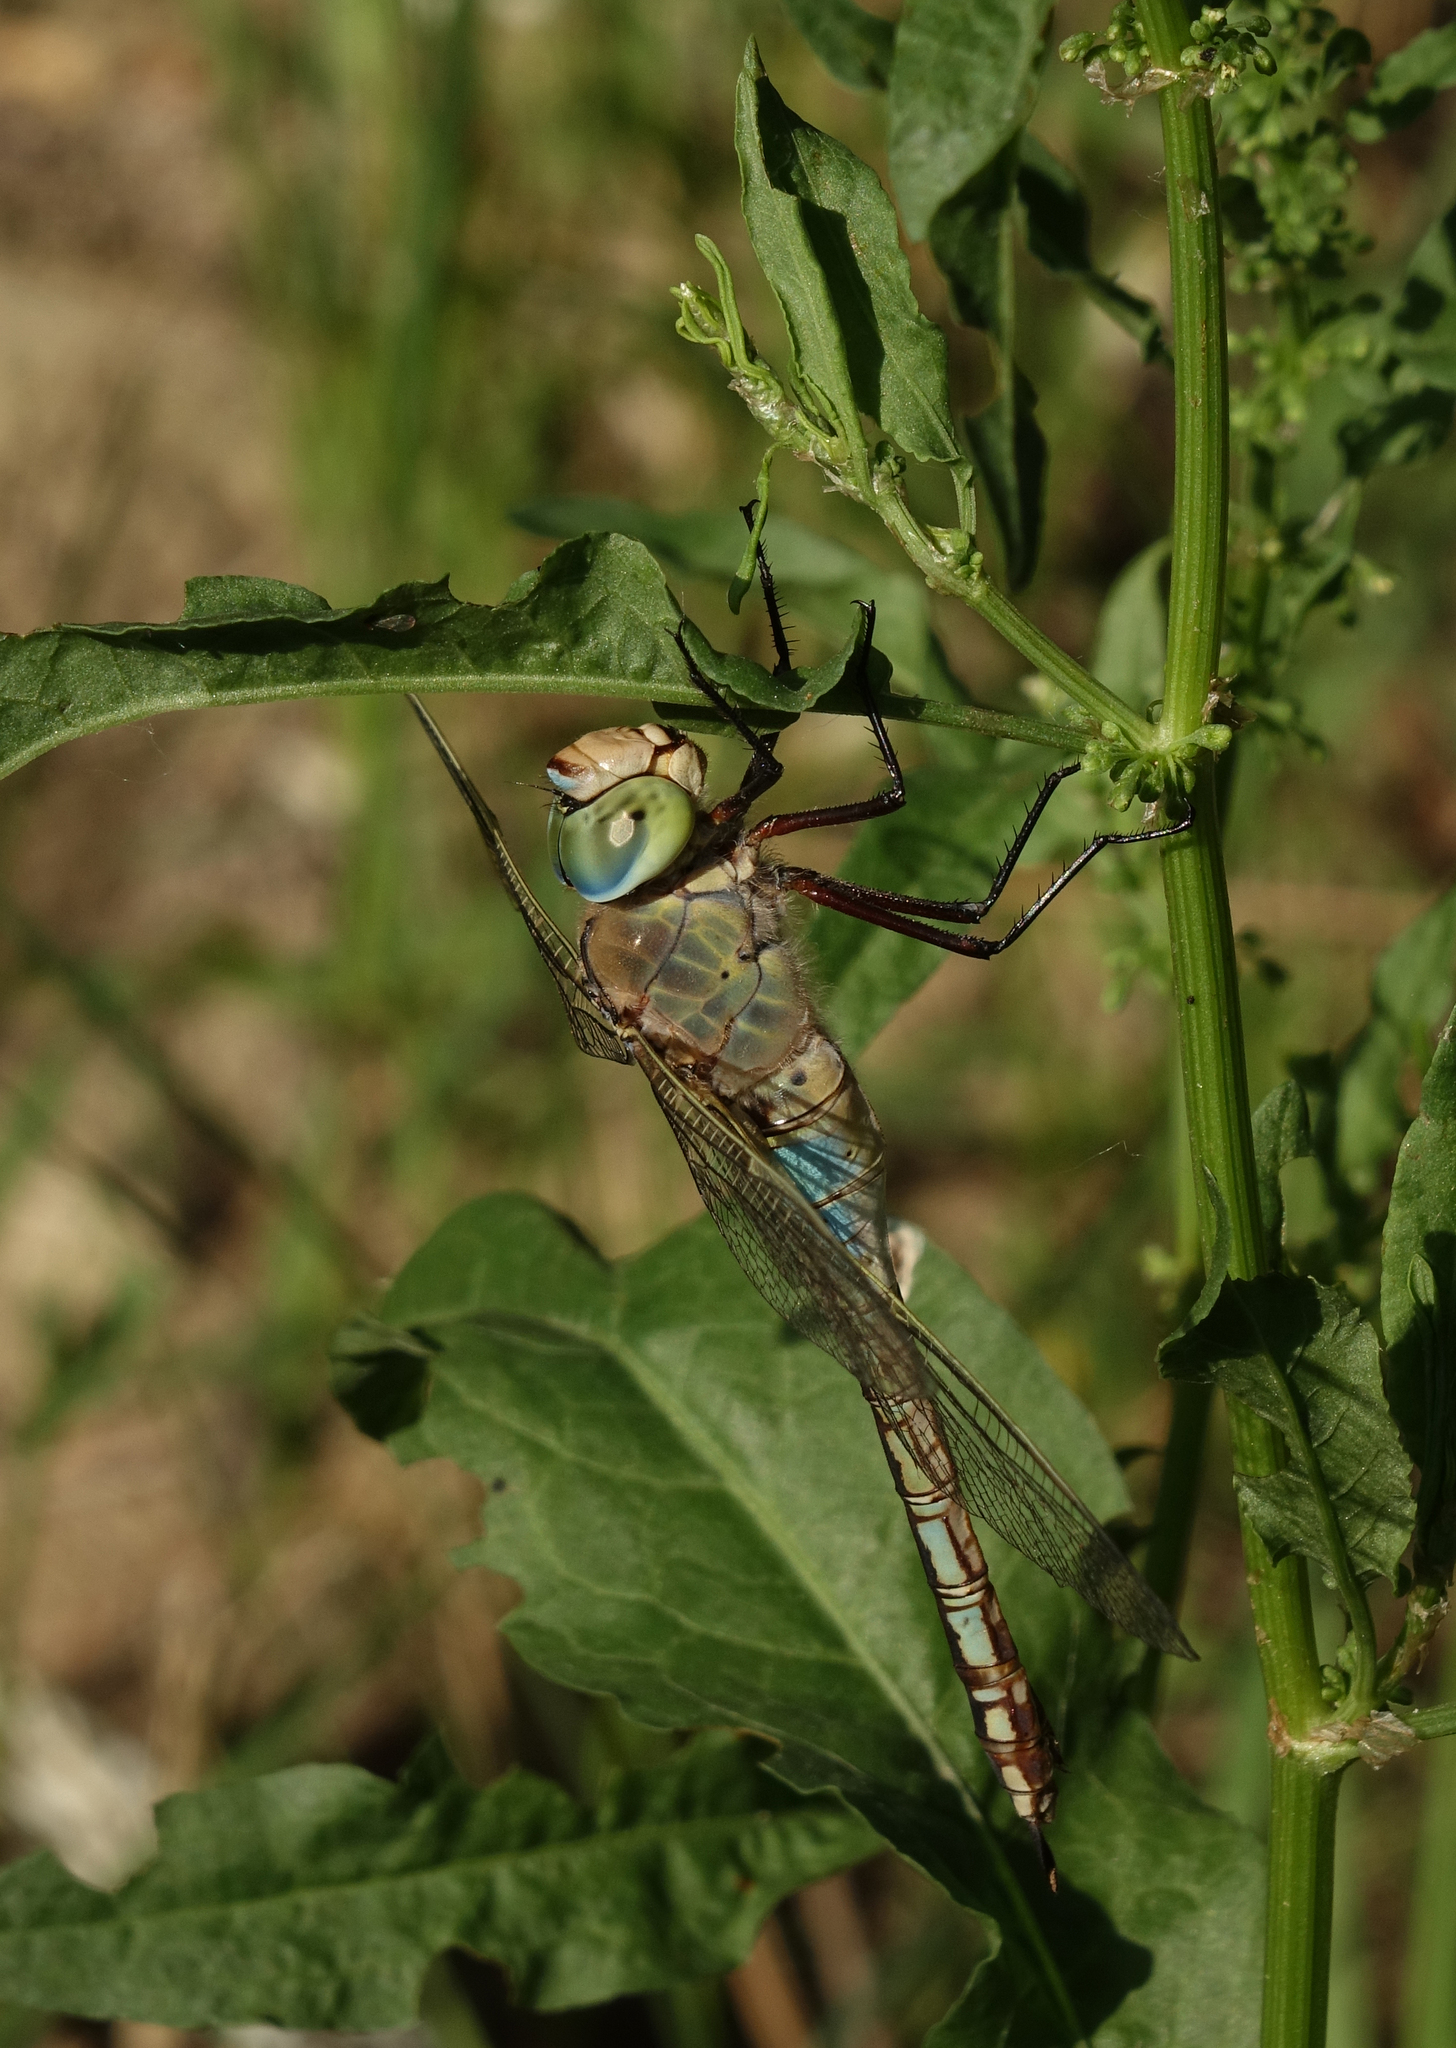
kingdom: Animalia
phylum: Arthropoda
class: Insecta
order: Odonata
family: Aeshnidae
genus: Anax
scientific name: Anax parthenope
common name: Lesser emperor
